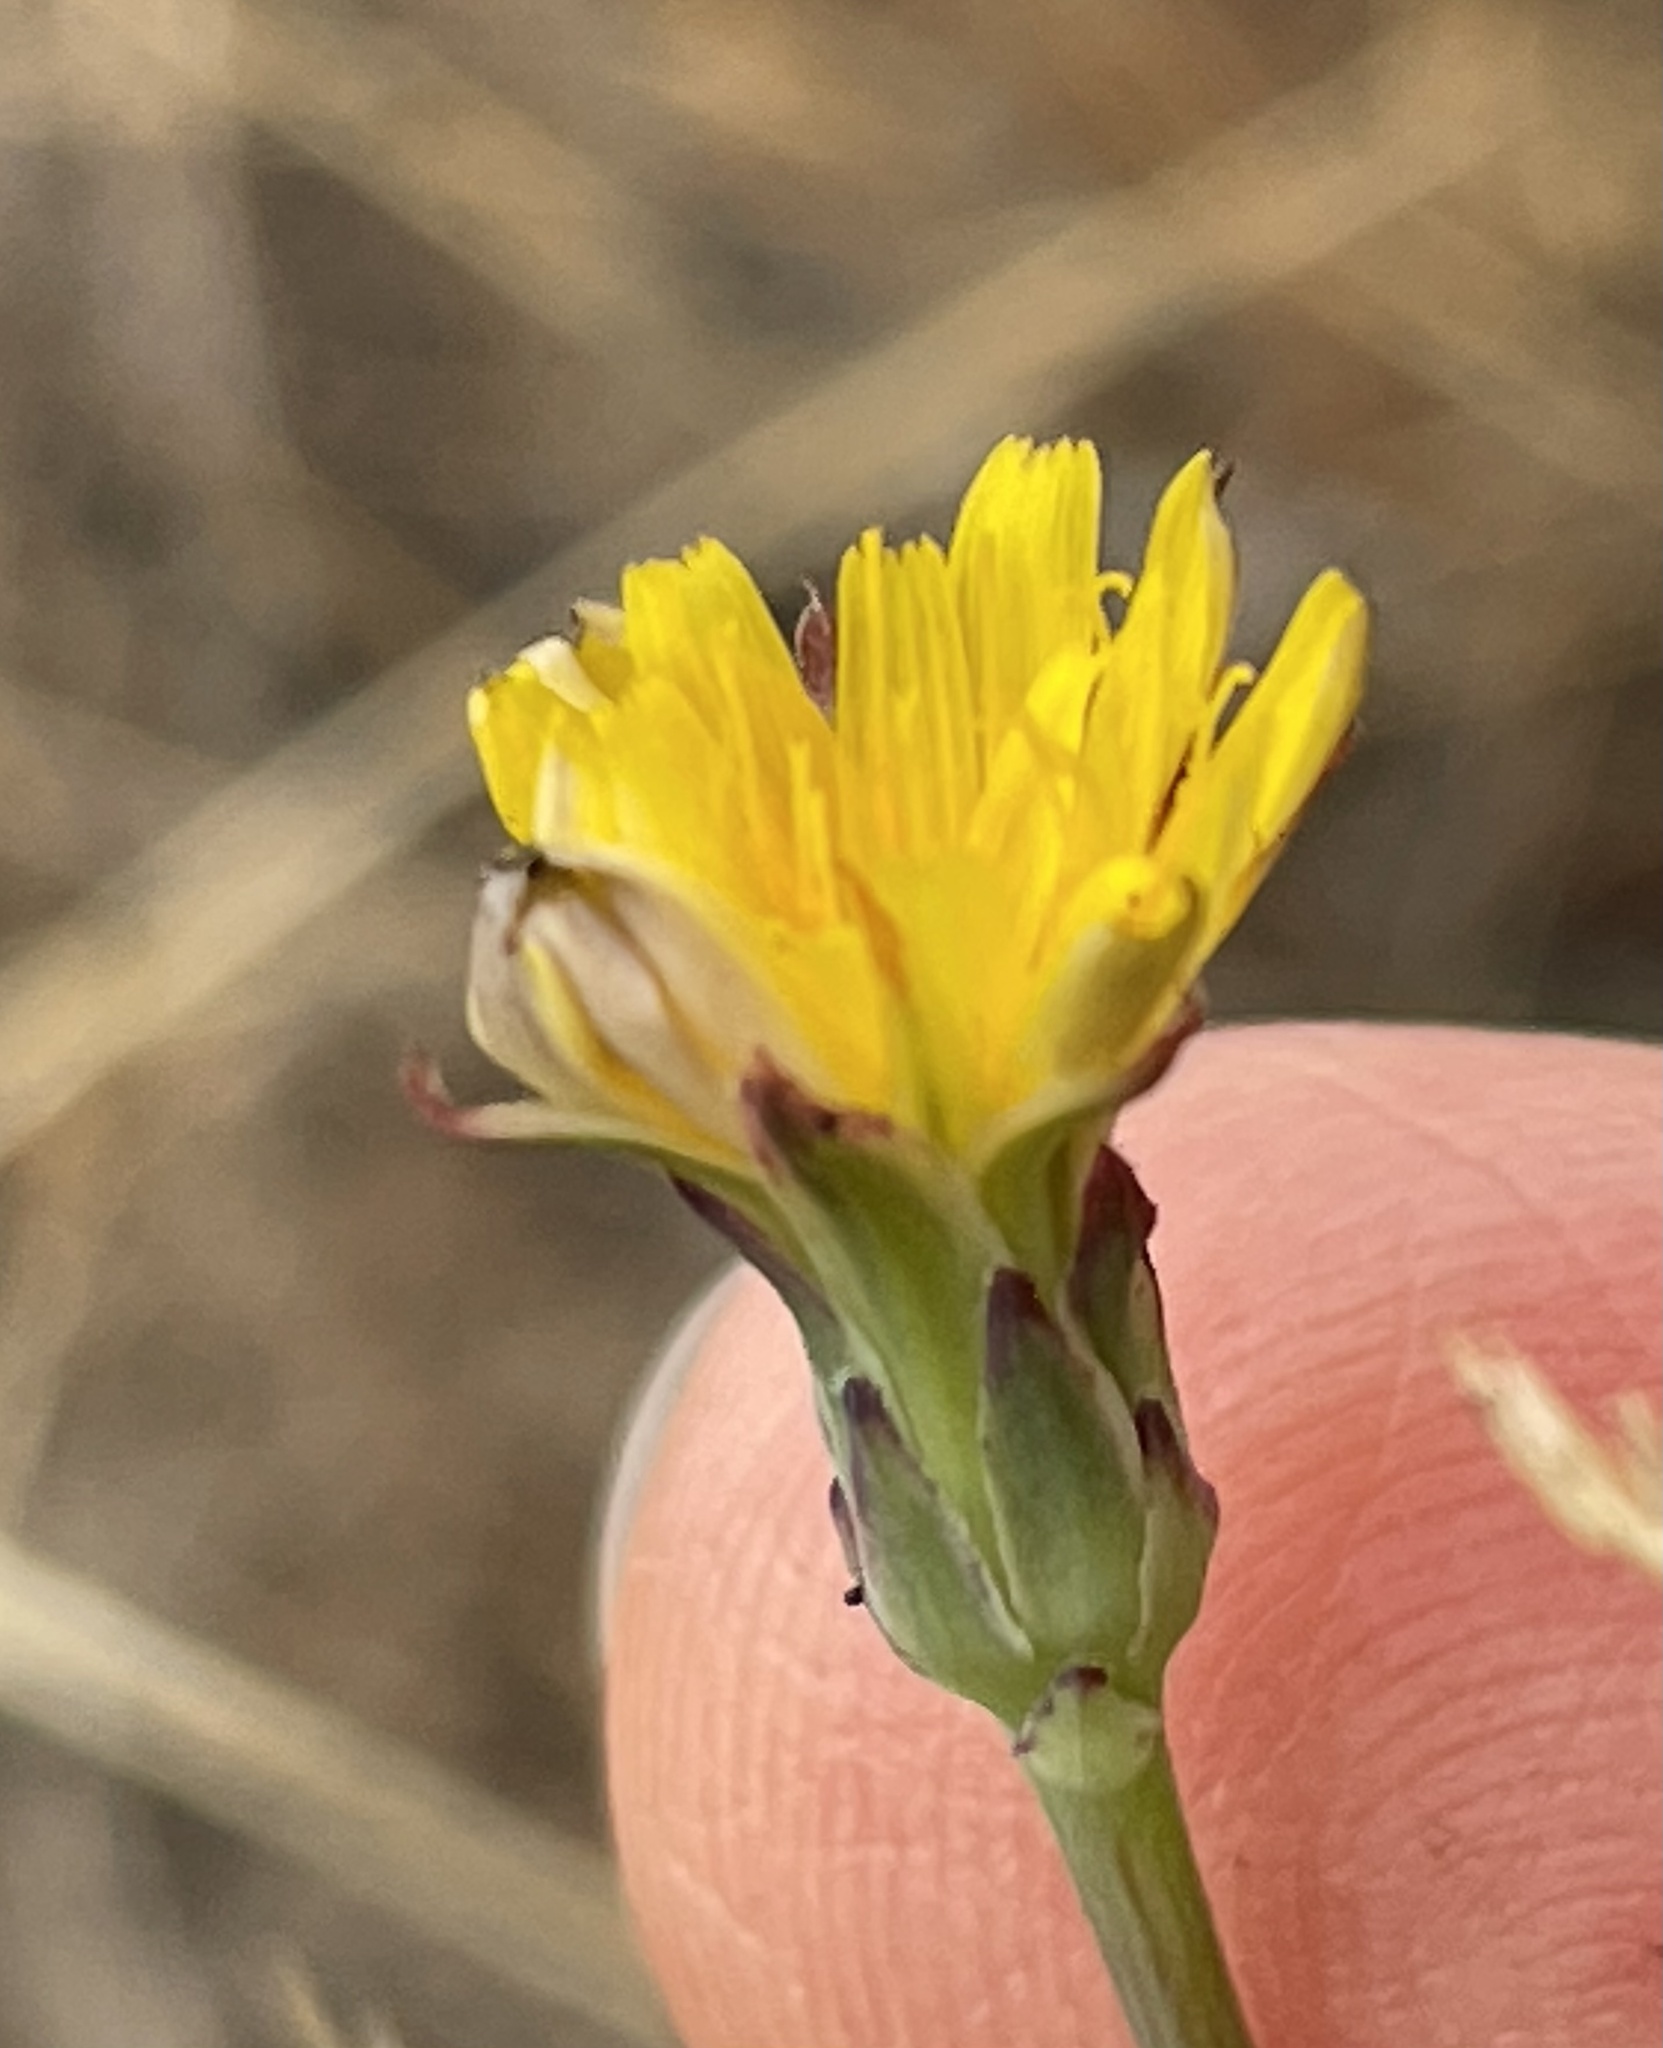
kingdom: Plantae
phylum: Tracheophyta
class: Magnoliopsida
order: Asterales
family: Asteraceae
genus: Hypochaeris
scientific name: Hypochaeris radicata
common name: Flatweed
